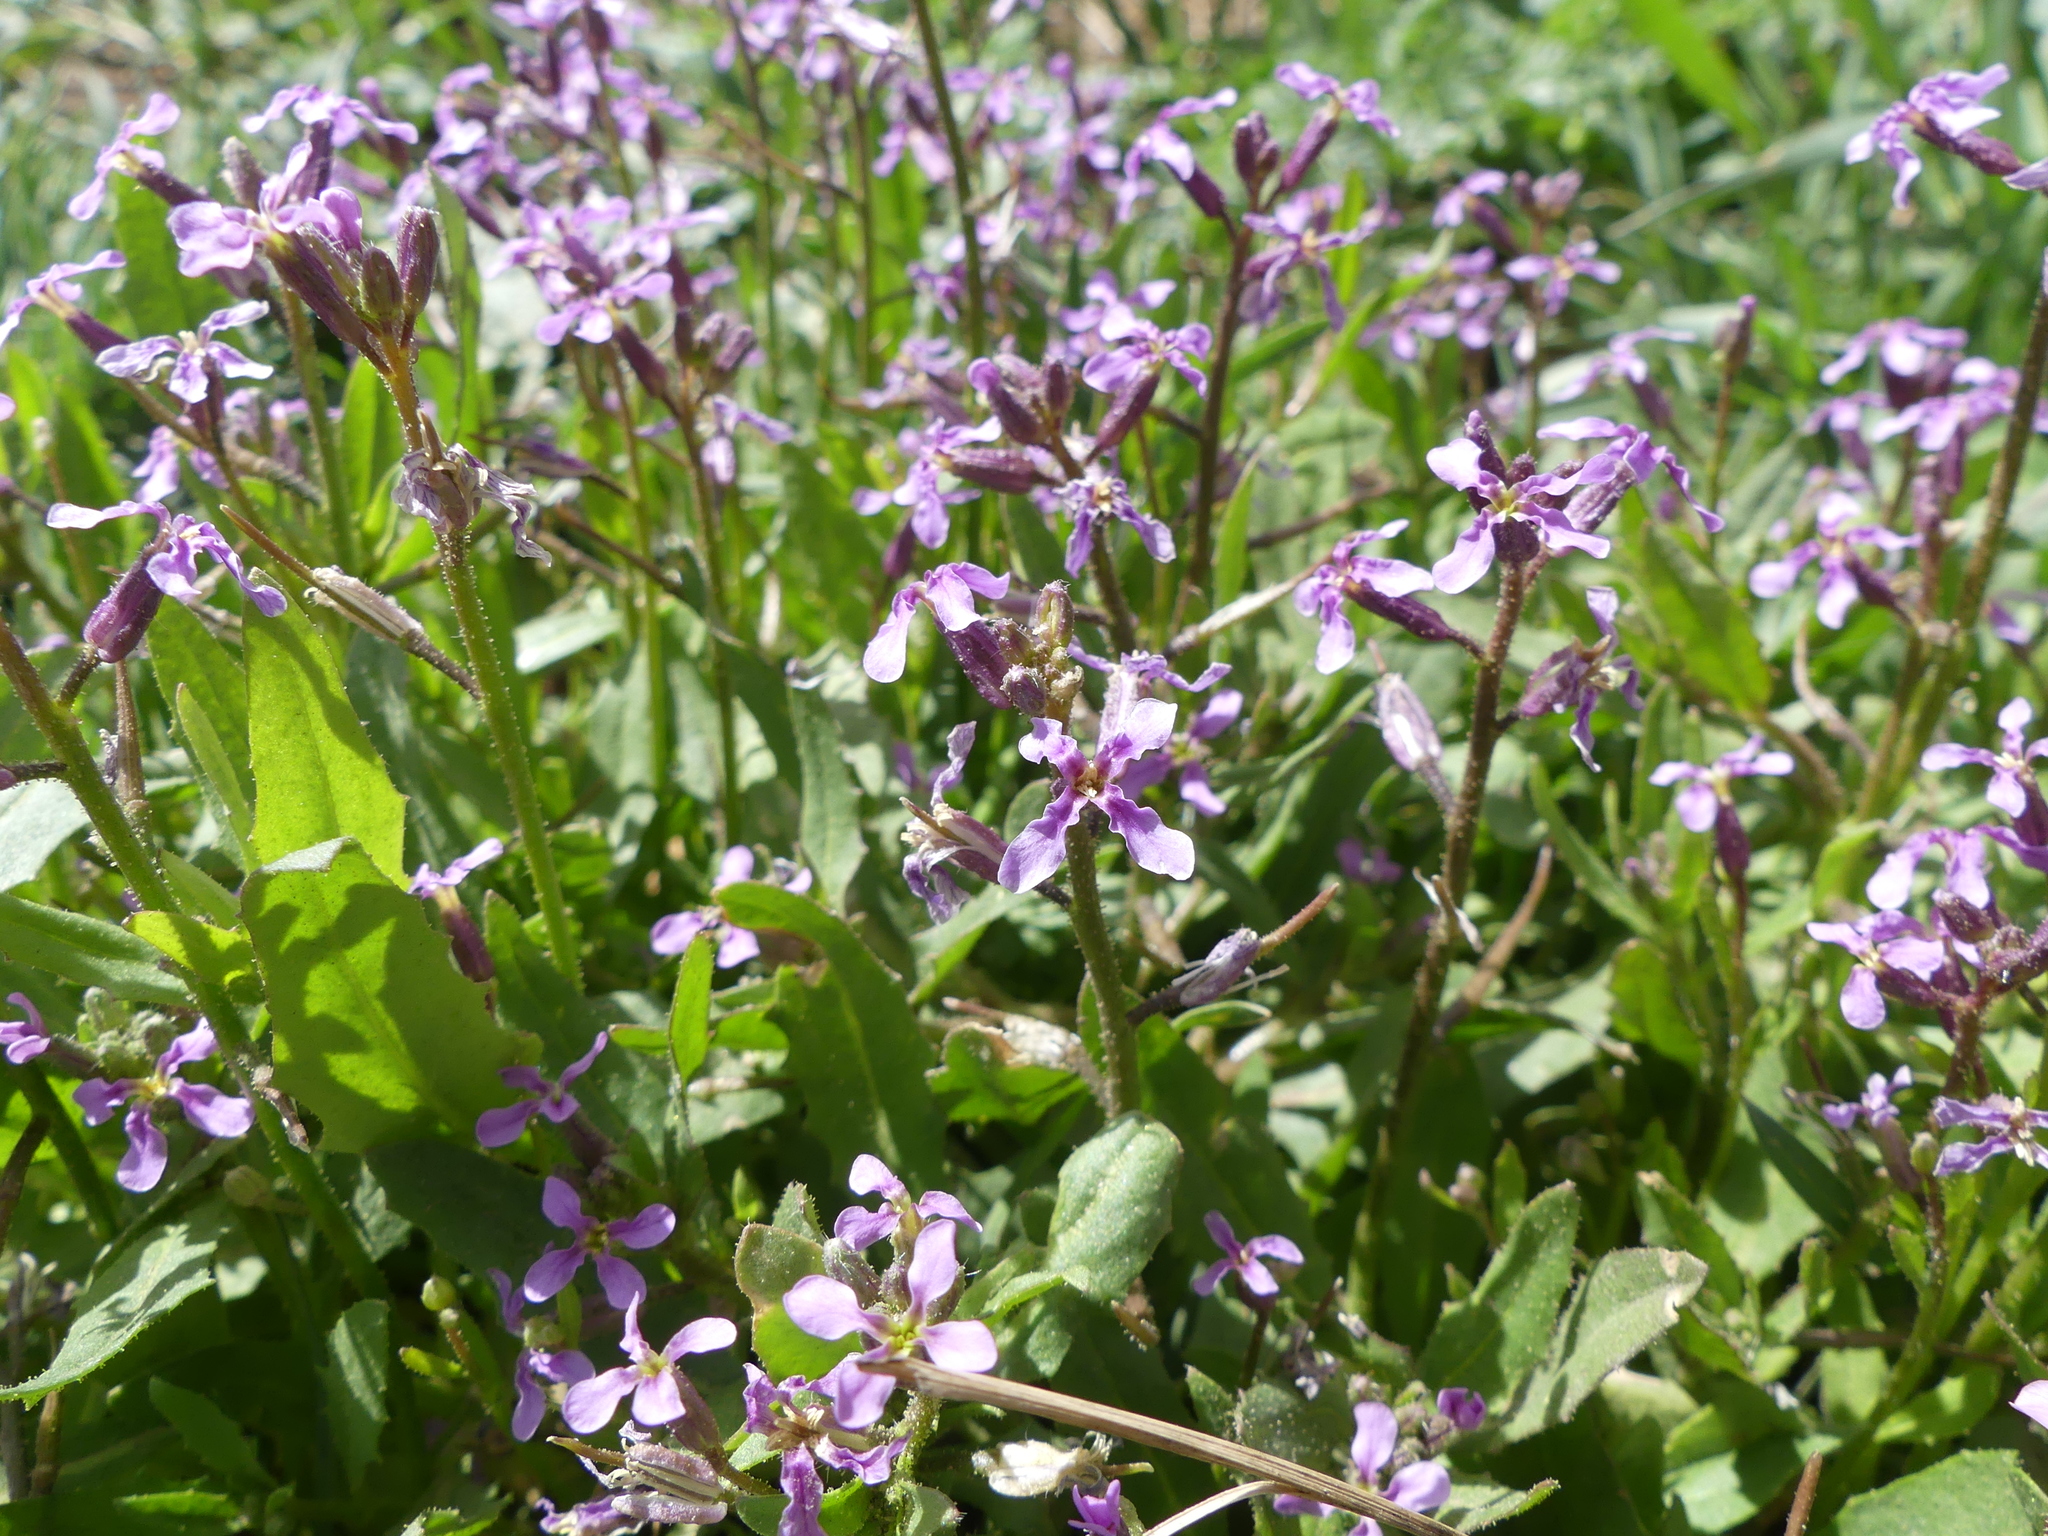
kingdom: Plantae
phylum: Tracheophyta
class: Magnoliopsida
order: Brassicales
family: Brassicaceae
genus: Chorispora
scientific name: Chorispora tenella
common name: Crossflower
